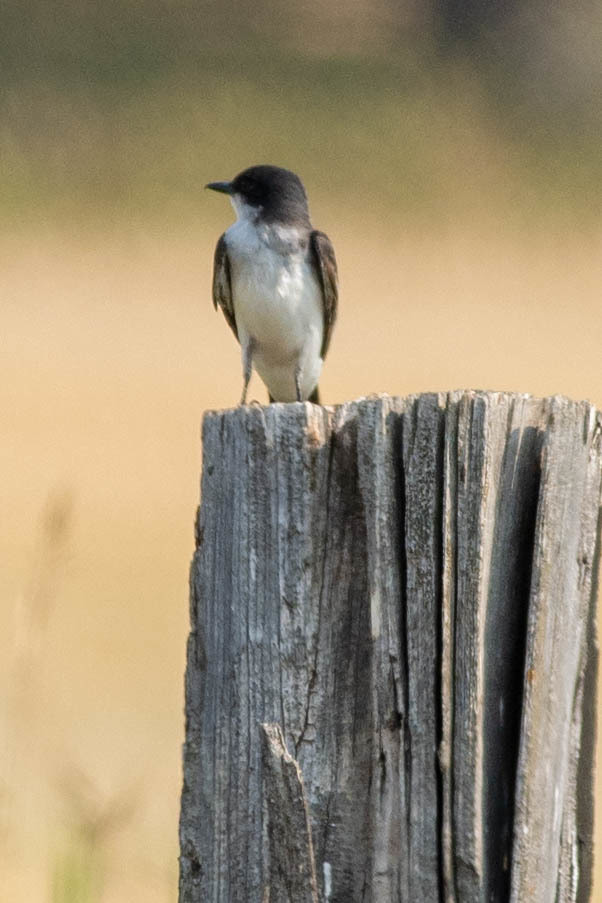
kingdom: Animalia
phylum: Chordata
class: Aves
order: Passeriformes
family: Tyrannidae
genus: Tyrannus
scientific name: Tyrannus tyrannus
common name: Eastern kingbird
